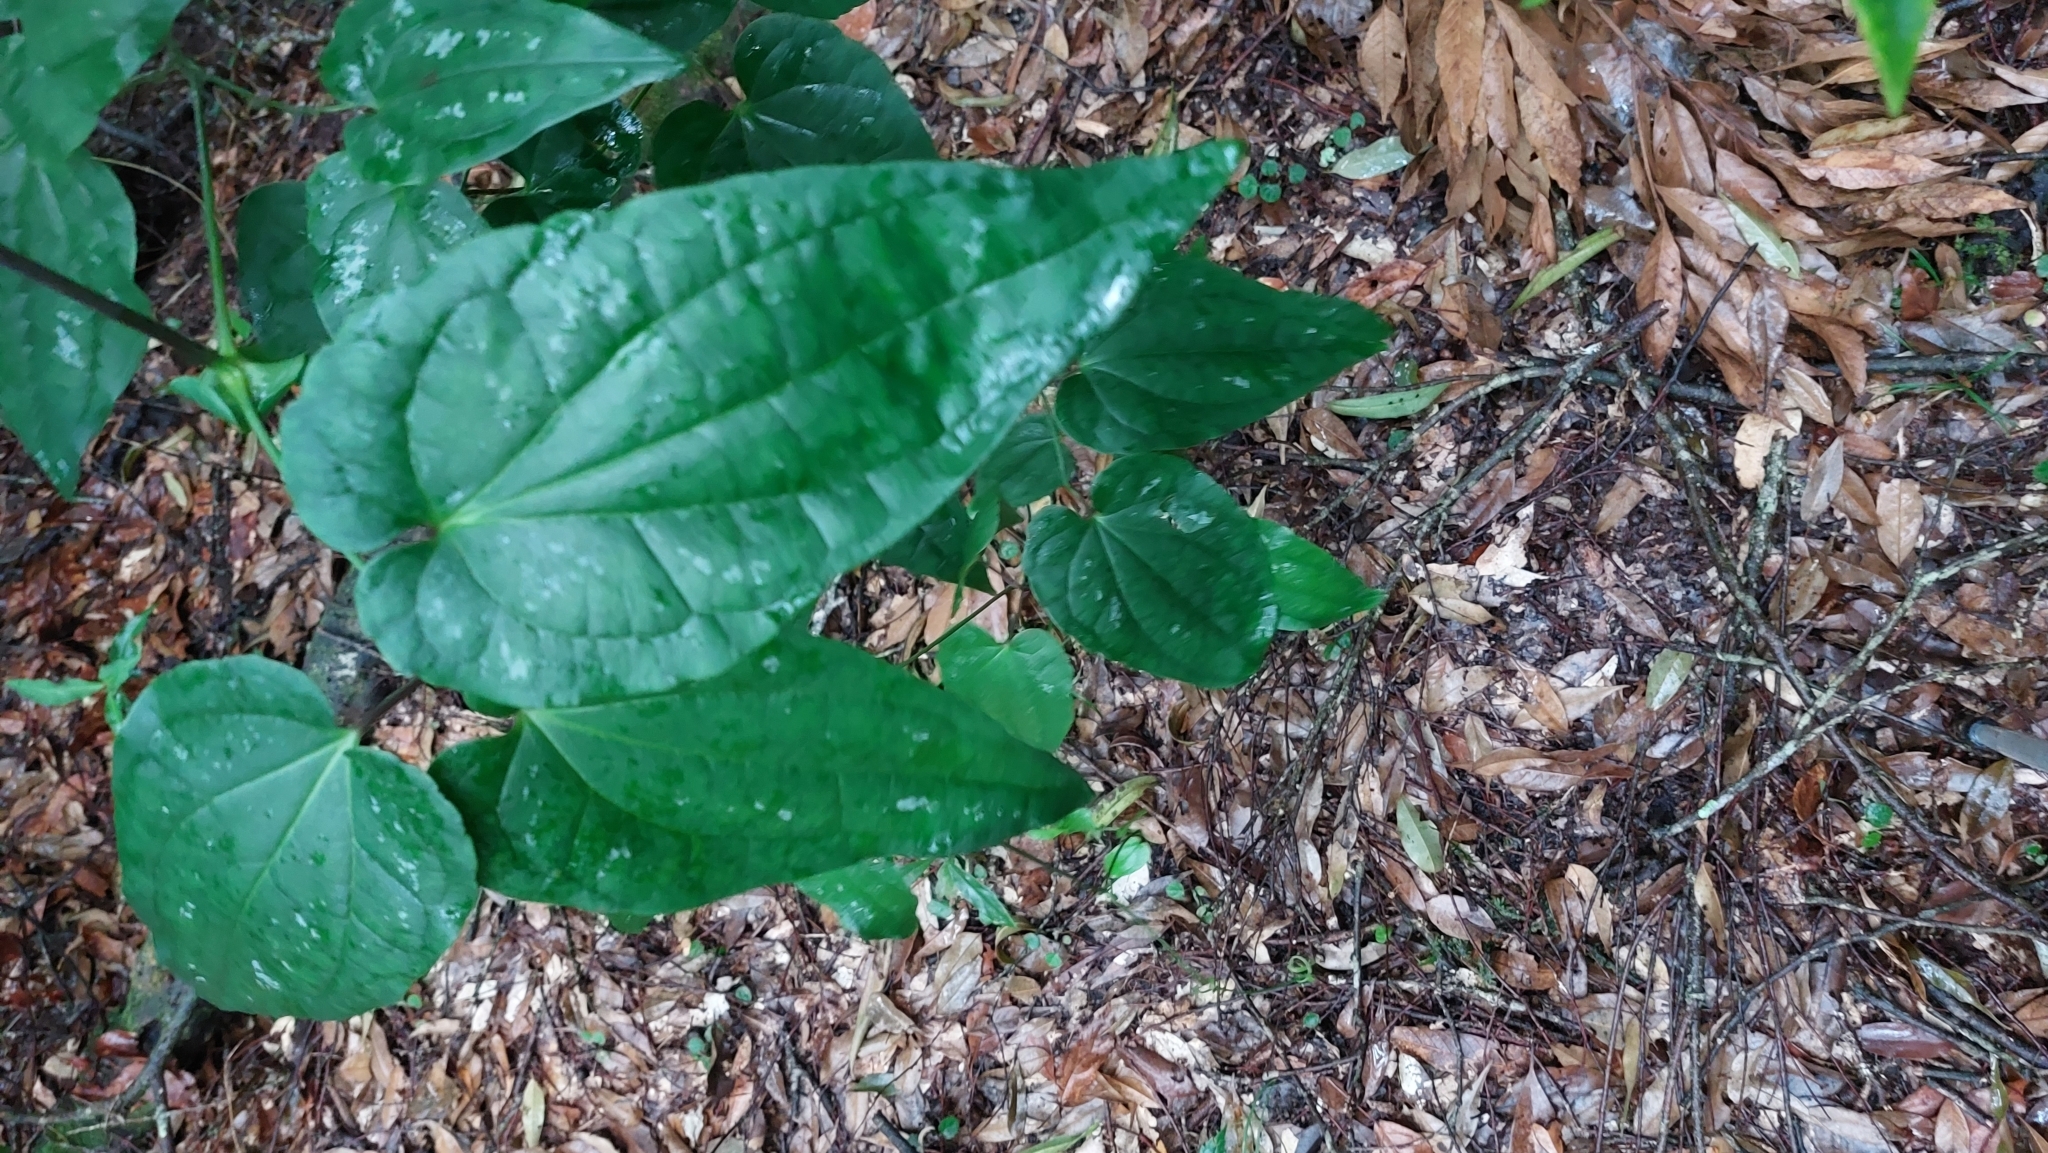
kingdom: Plantae
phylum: Tracheophyta
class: Magnoliopsida
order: Ranunculales
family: Ranunculaceae
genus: Clematis
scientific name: Clematis tashiroi
